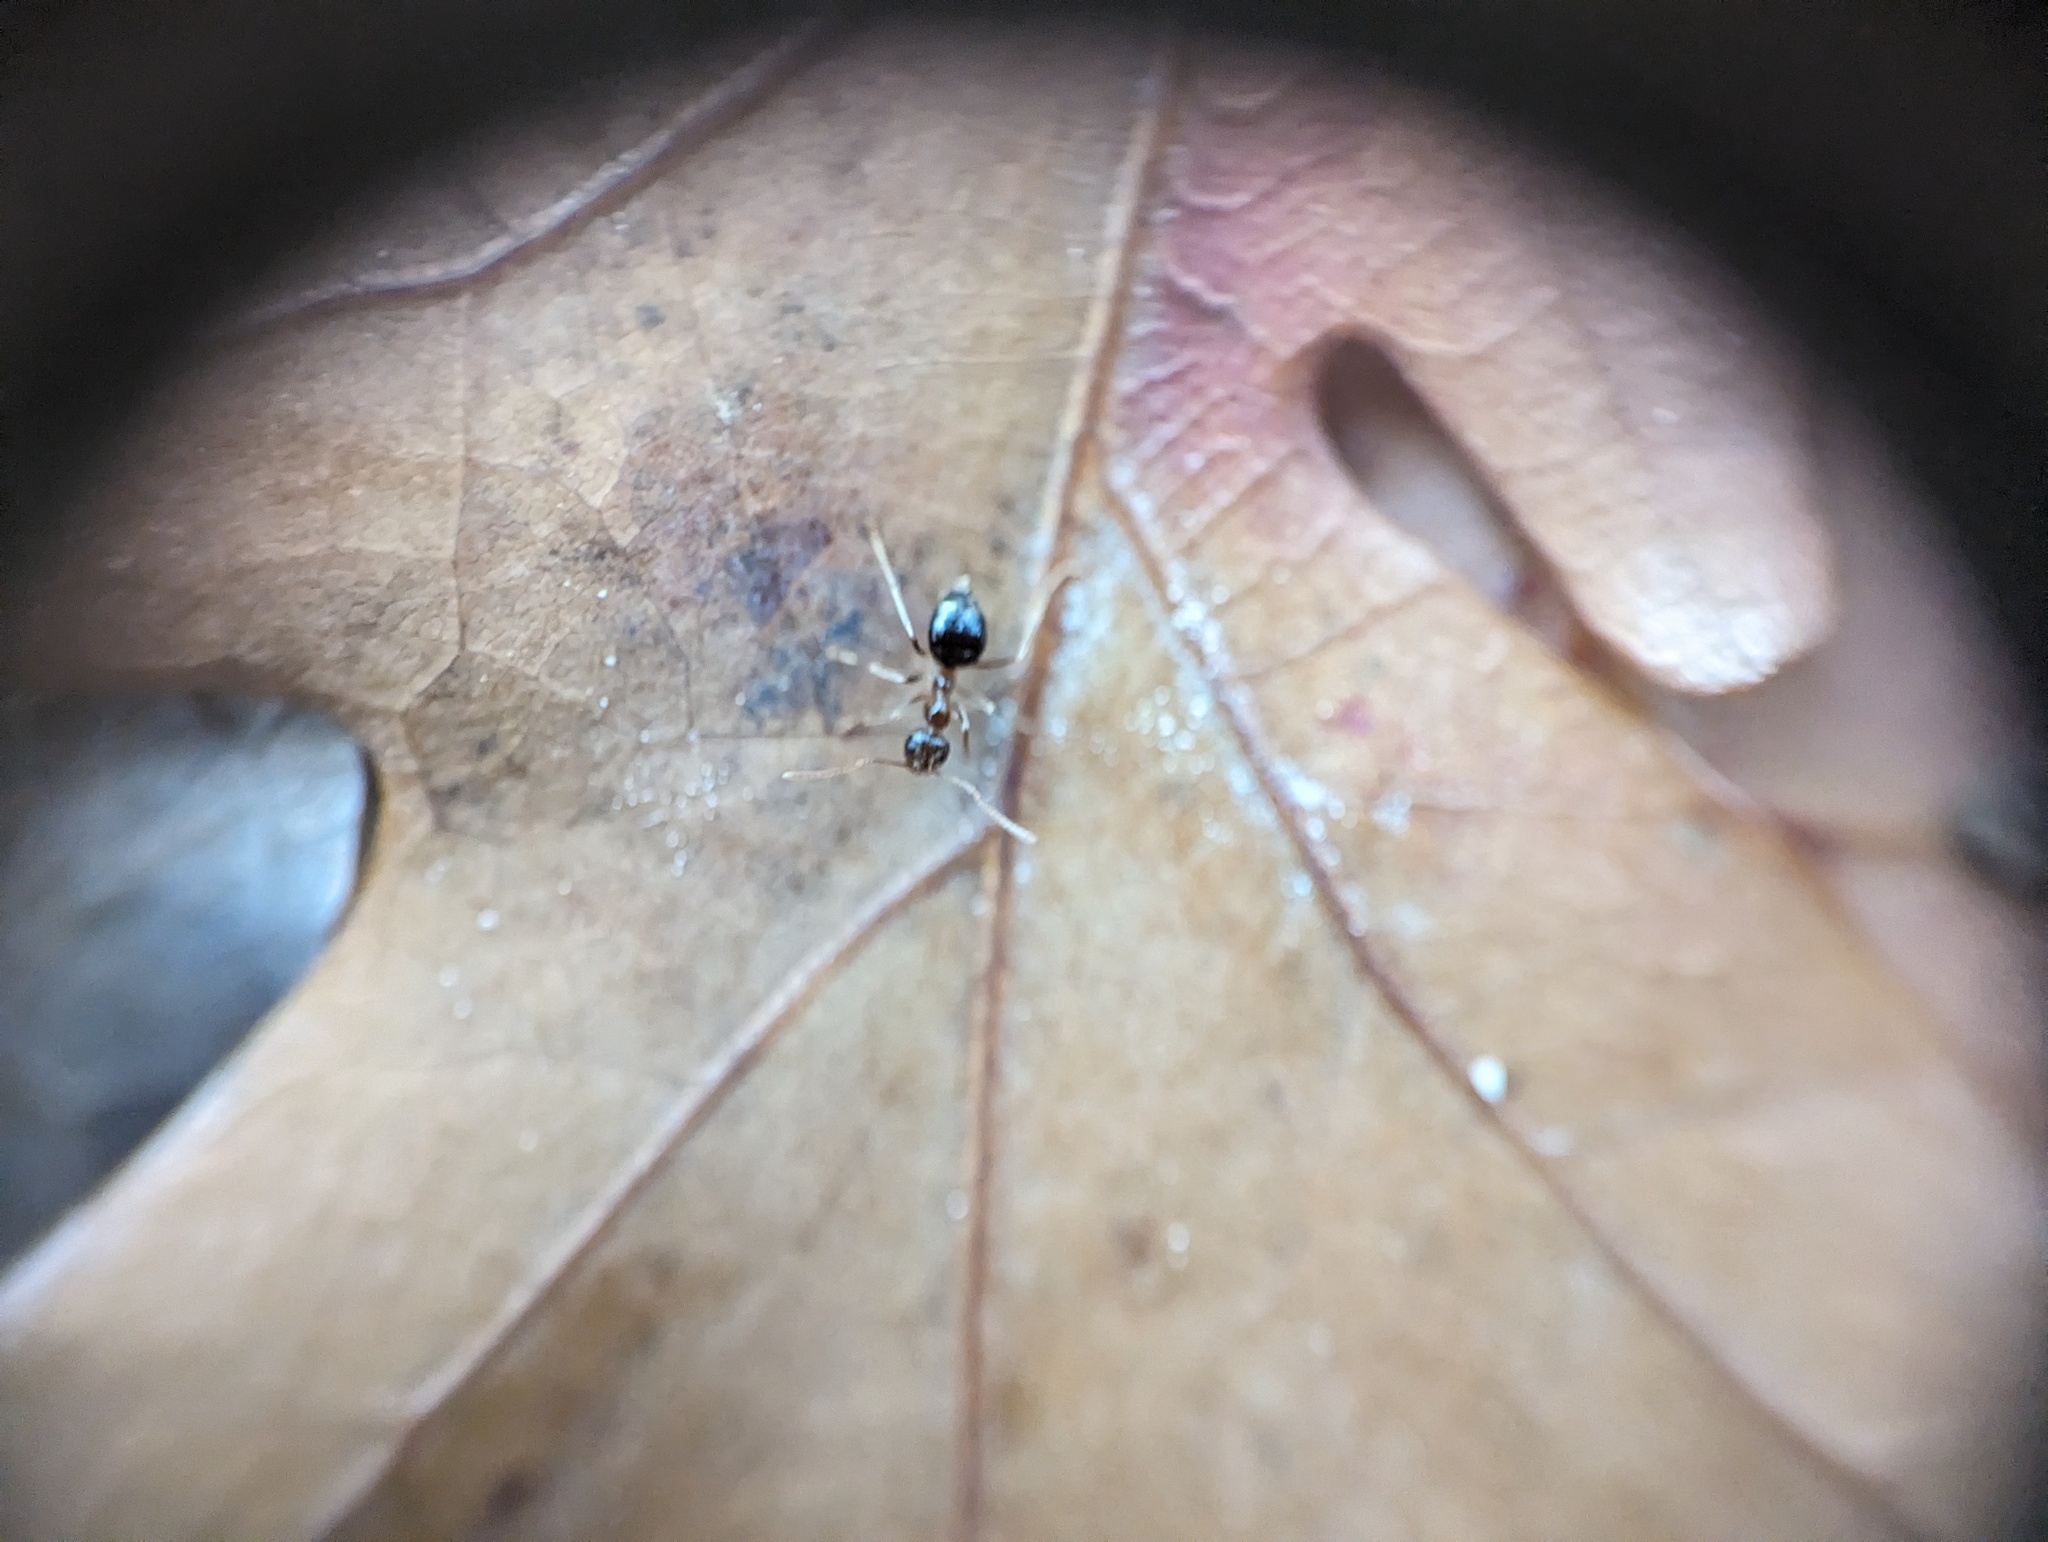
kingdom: Animalia
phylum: Arthropoda
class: Insecta
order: Hymenoptera
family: Formicidae
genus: Prenolepis
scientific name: Prenolepis imparis
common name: Small honey ant
